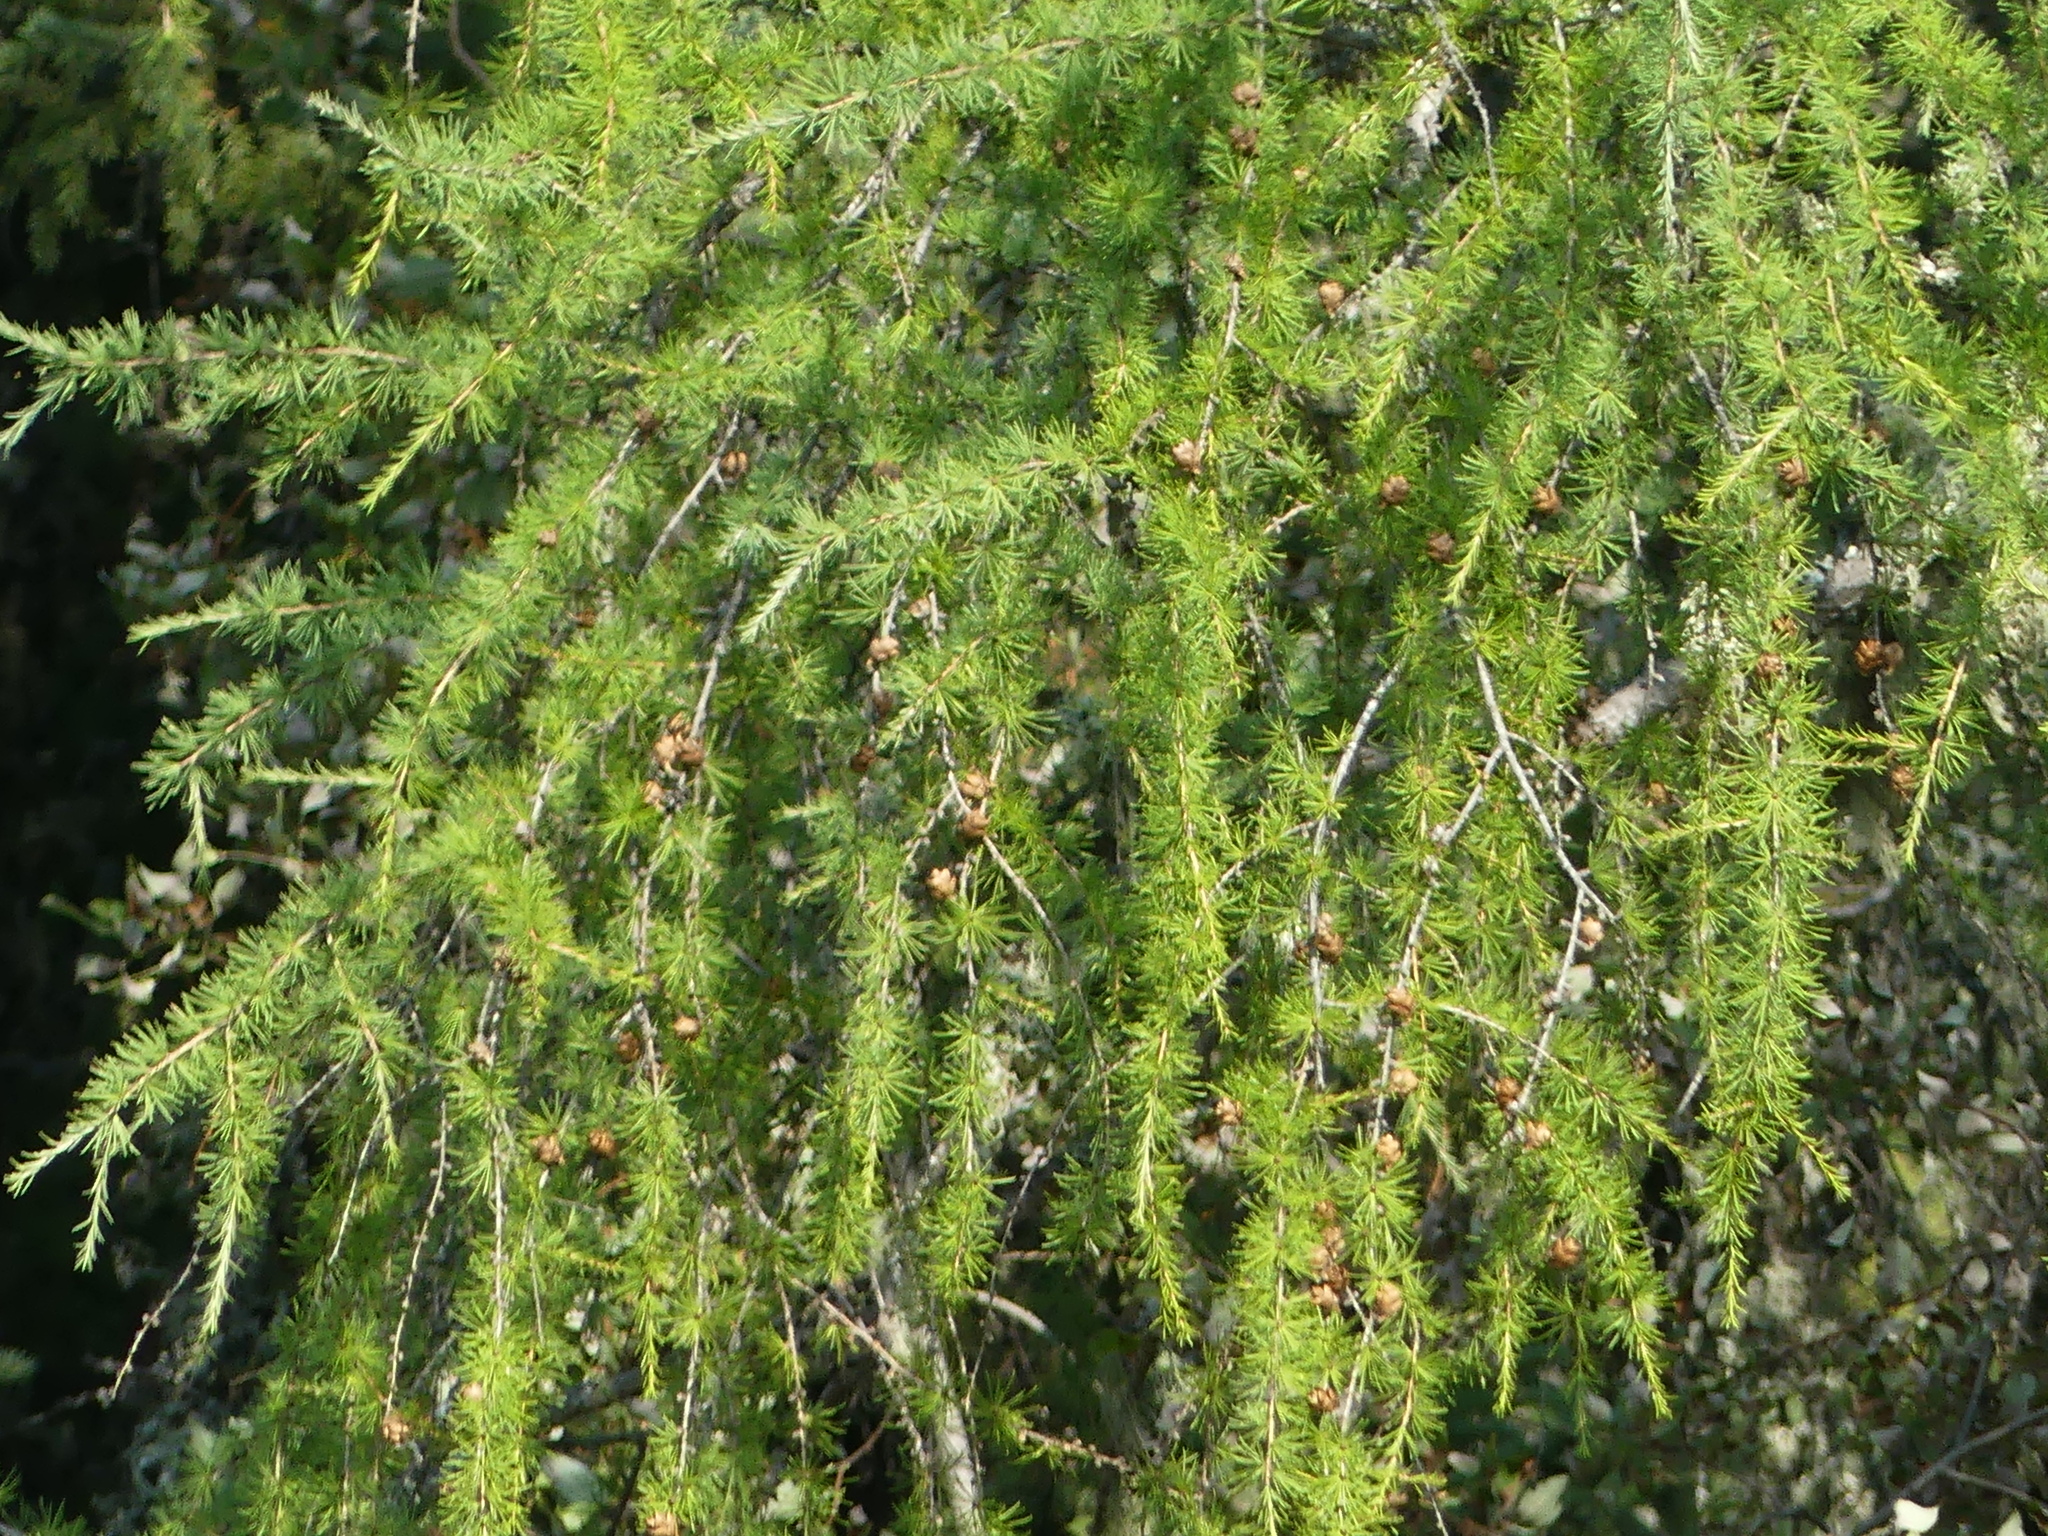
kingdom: Plantae
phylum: Tracheophyta
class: Pinopsida
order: Pinales
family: Pinaceae
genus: Larix
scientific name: Larix laricina
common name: American larch
